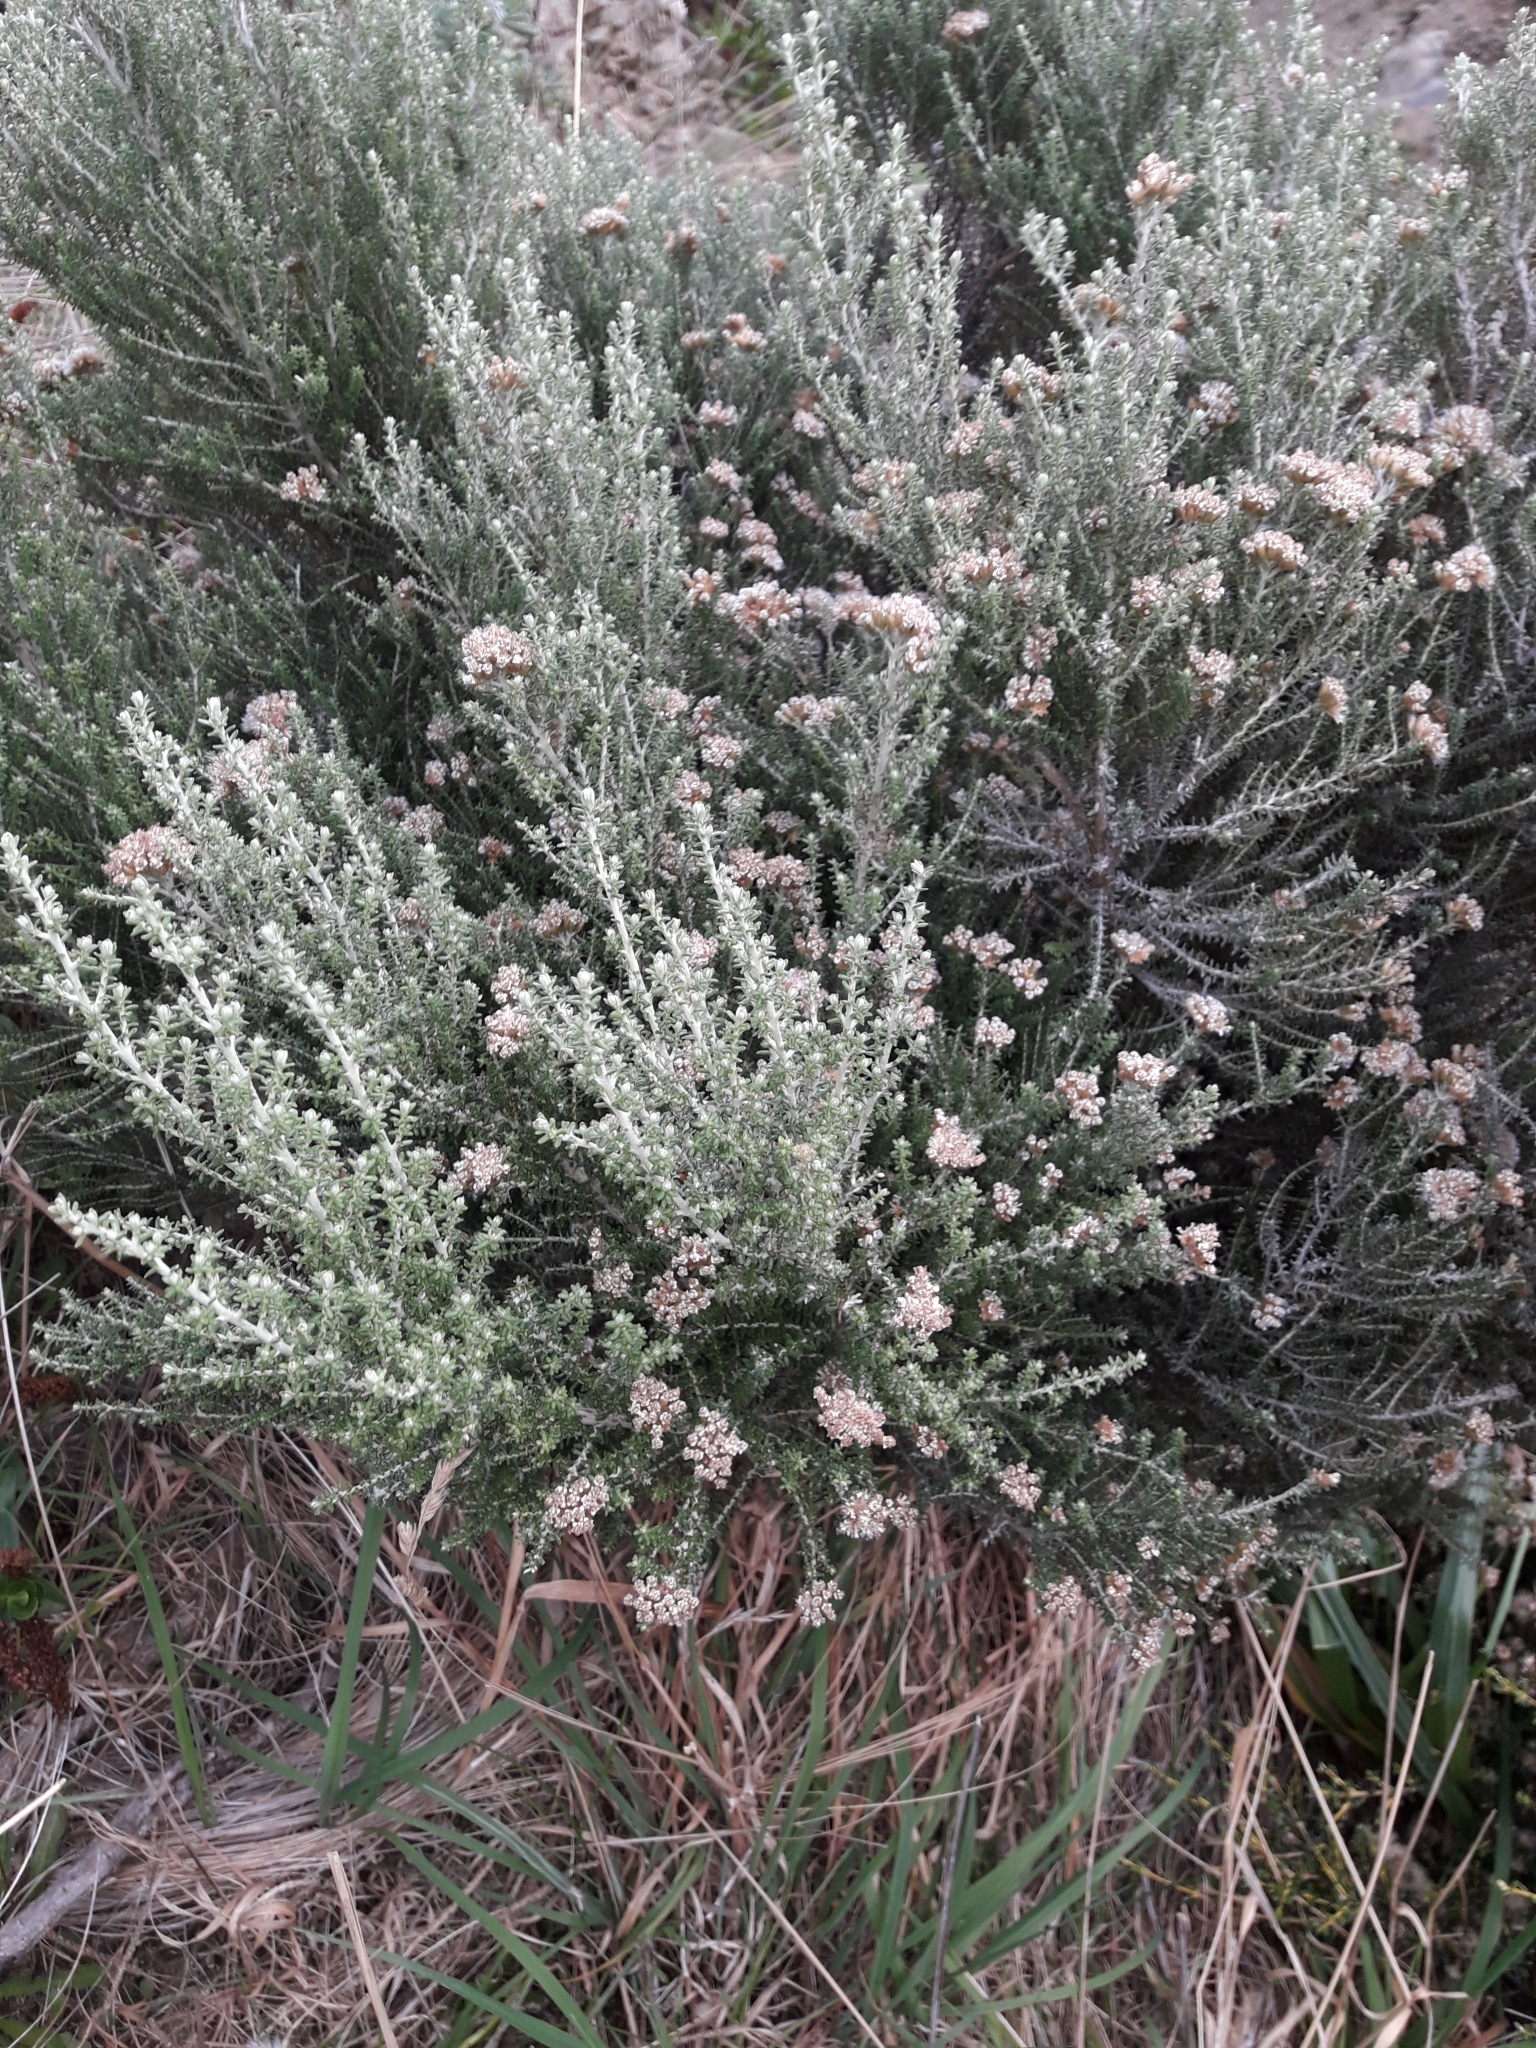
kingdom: Plantae
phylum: Tracheophyta
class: Magnoliopsida
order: Asterales
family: Asteraceae
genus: Ozothamnus
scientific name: Ozothamnus leptophyllus
